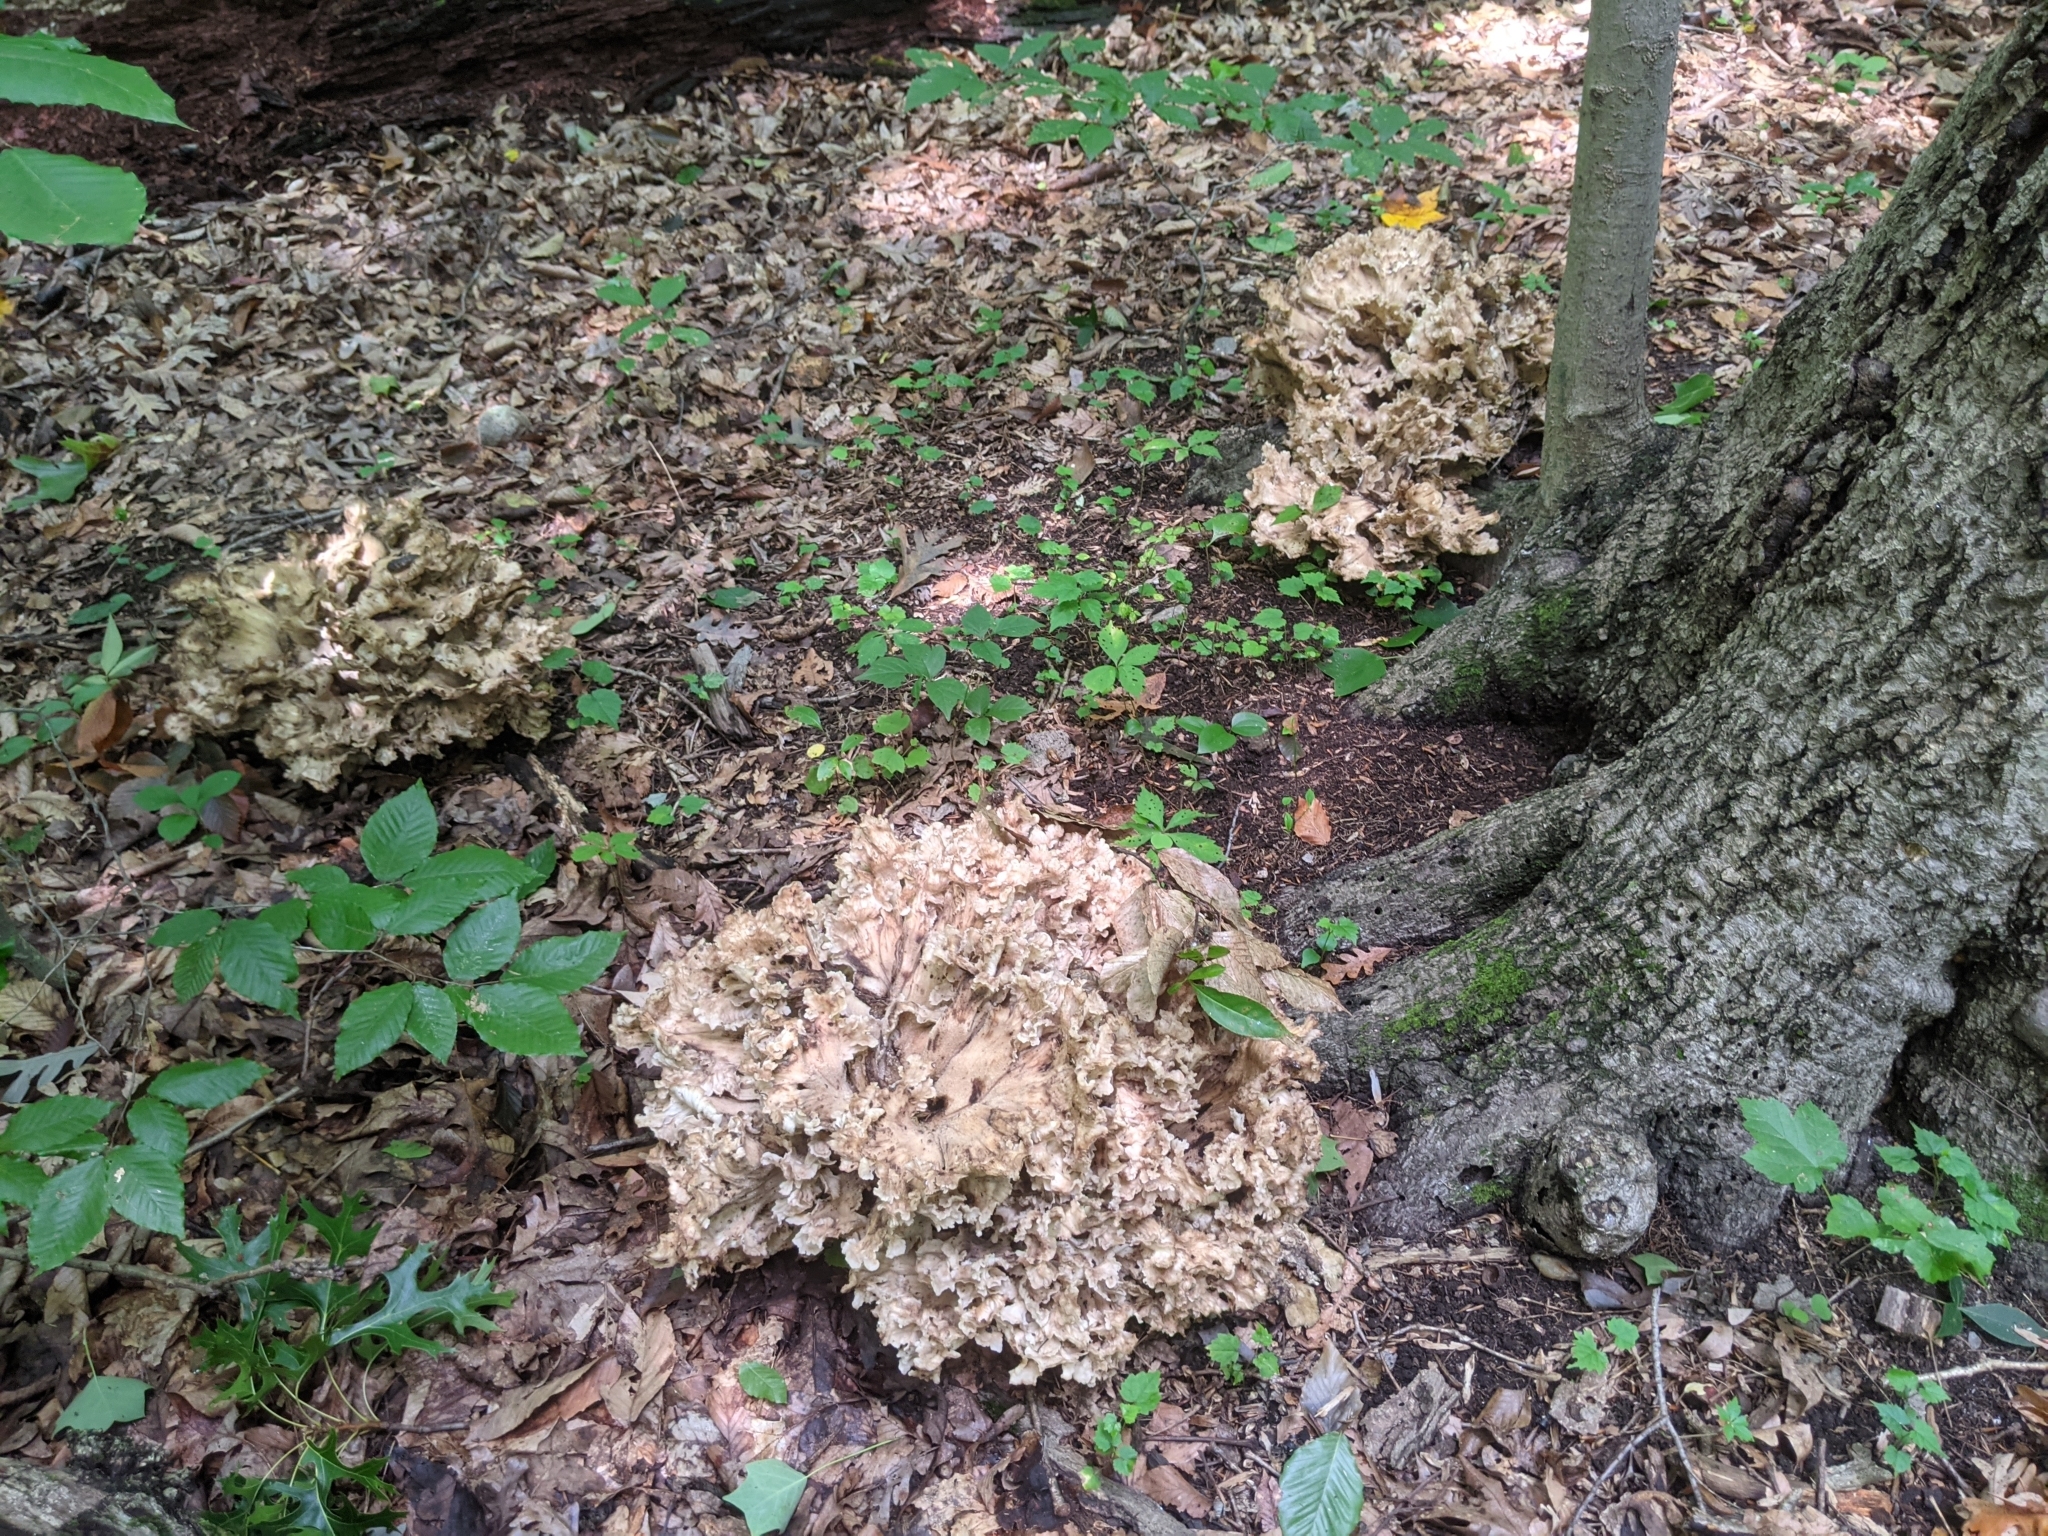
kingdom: Fungi
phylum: Basidiomycota
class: Agaricomycetes
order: Polyporales
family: Meripilaceae
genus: Meripilus
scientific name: Meripilus sumstinei
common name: Black-staining polypore
